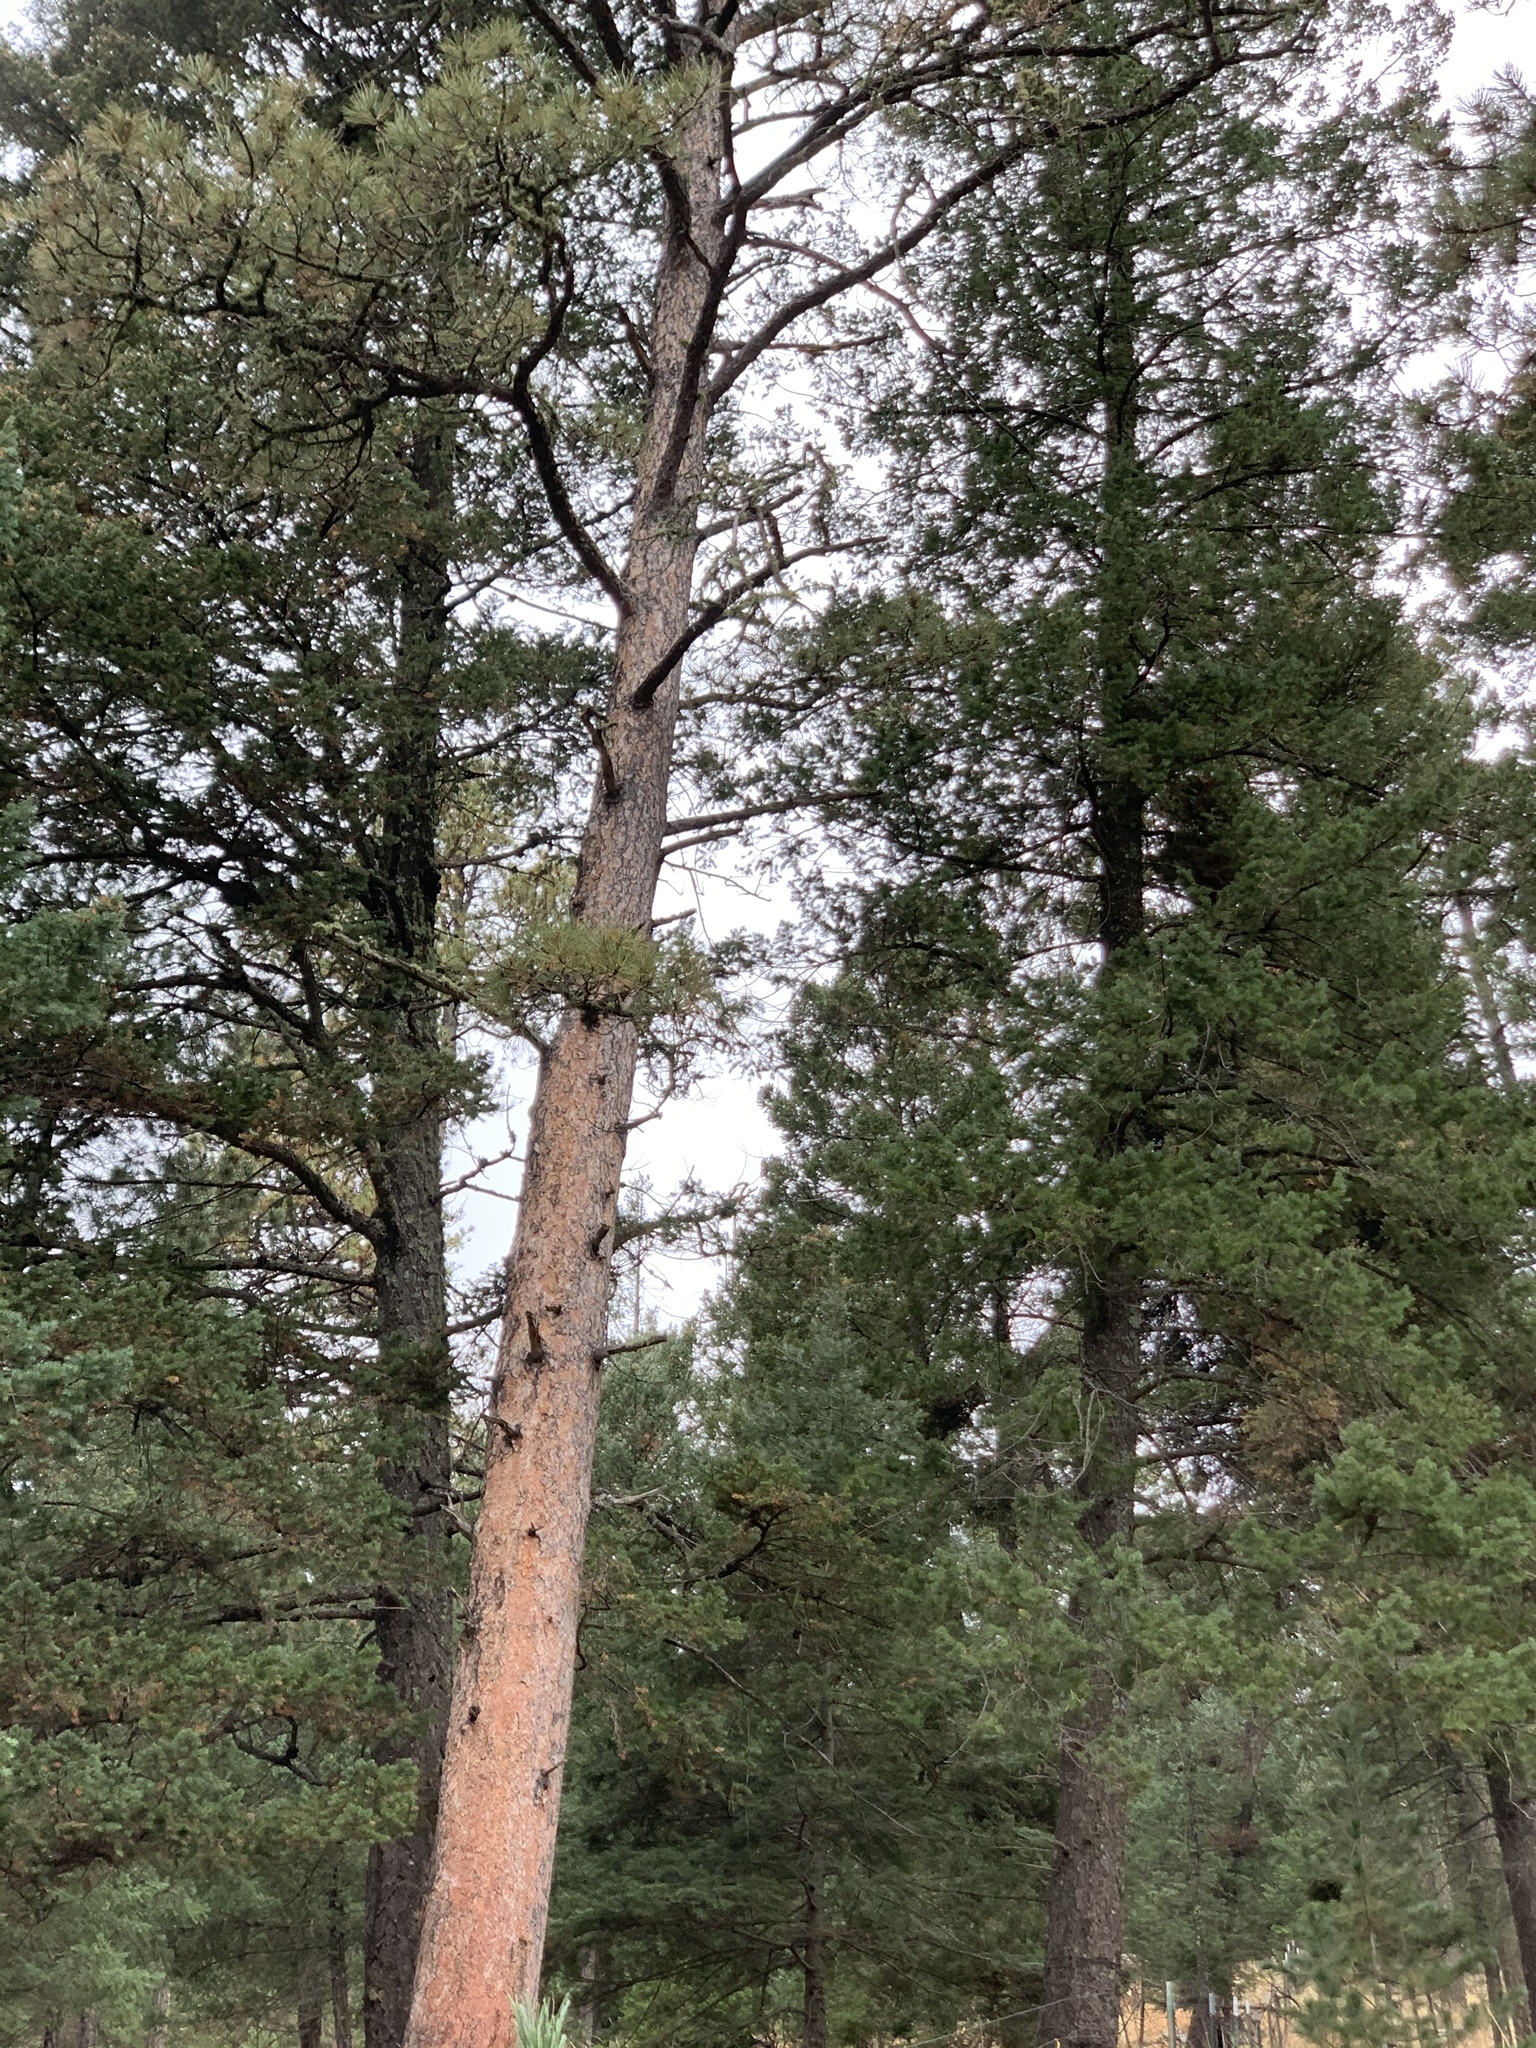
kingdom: Plantae
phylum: Tracheophyta
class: Pinopsida
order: Pinales
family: Pinaceae
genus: Pinus
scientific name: Pinus ponderosa
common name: Western yellow-pine
